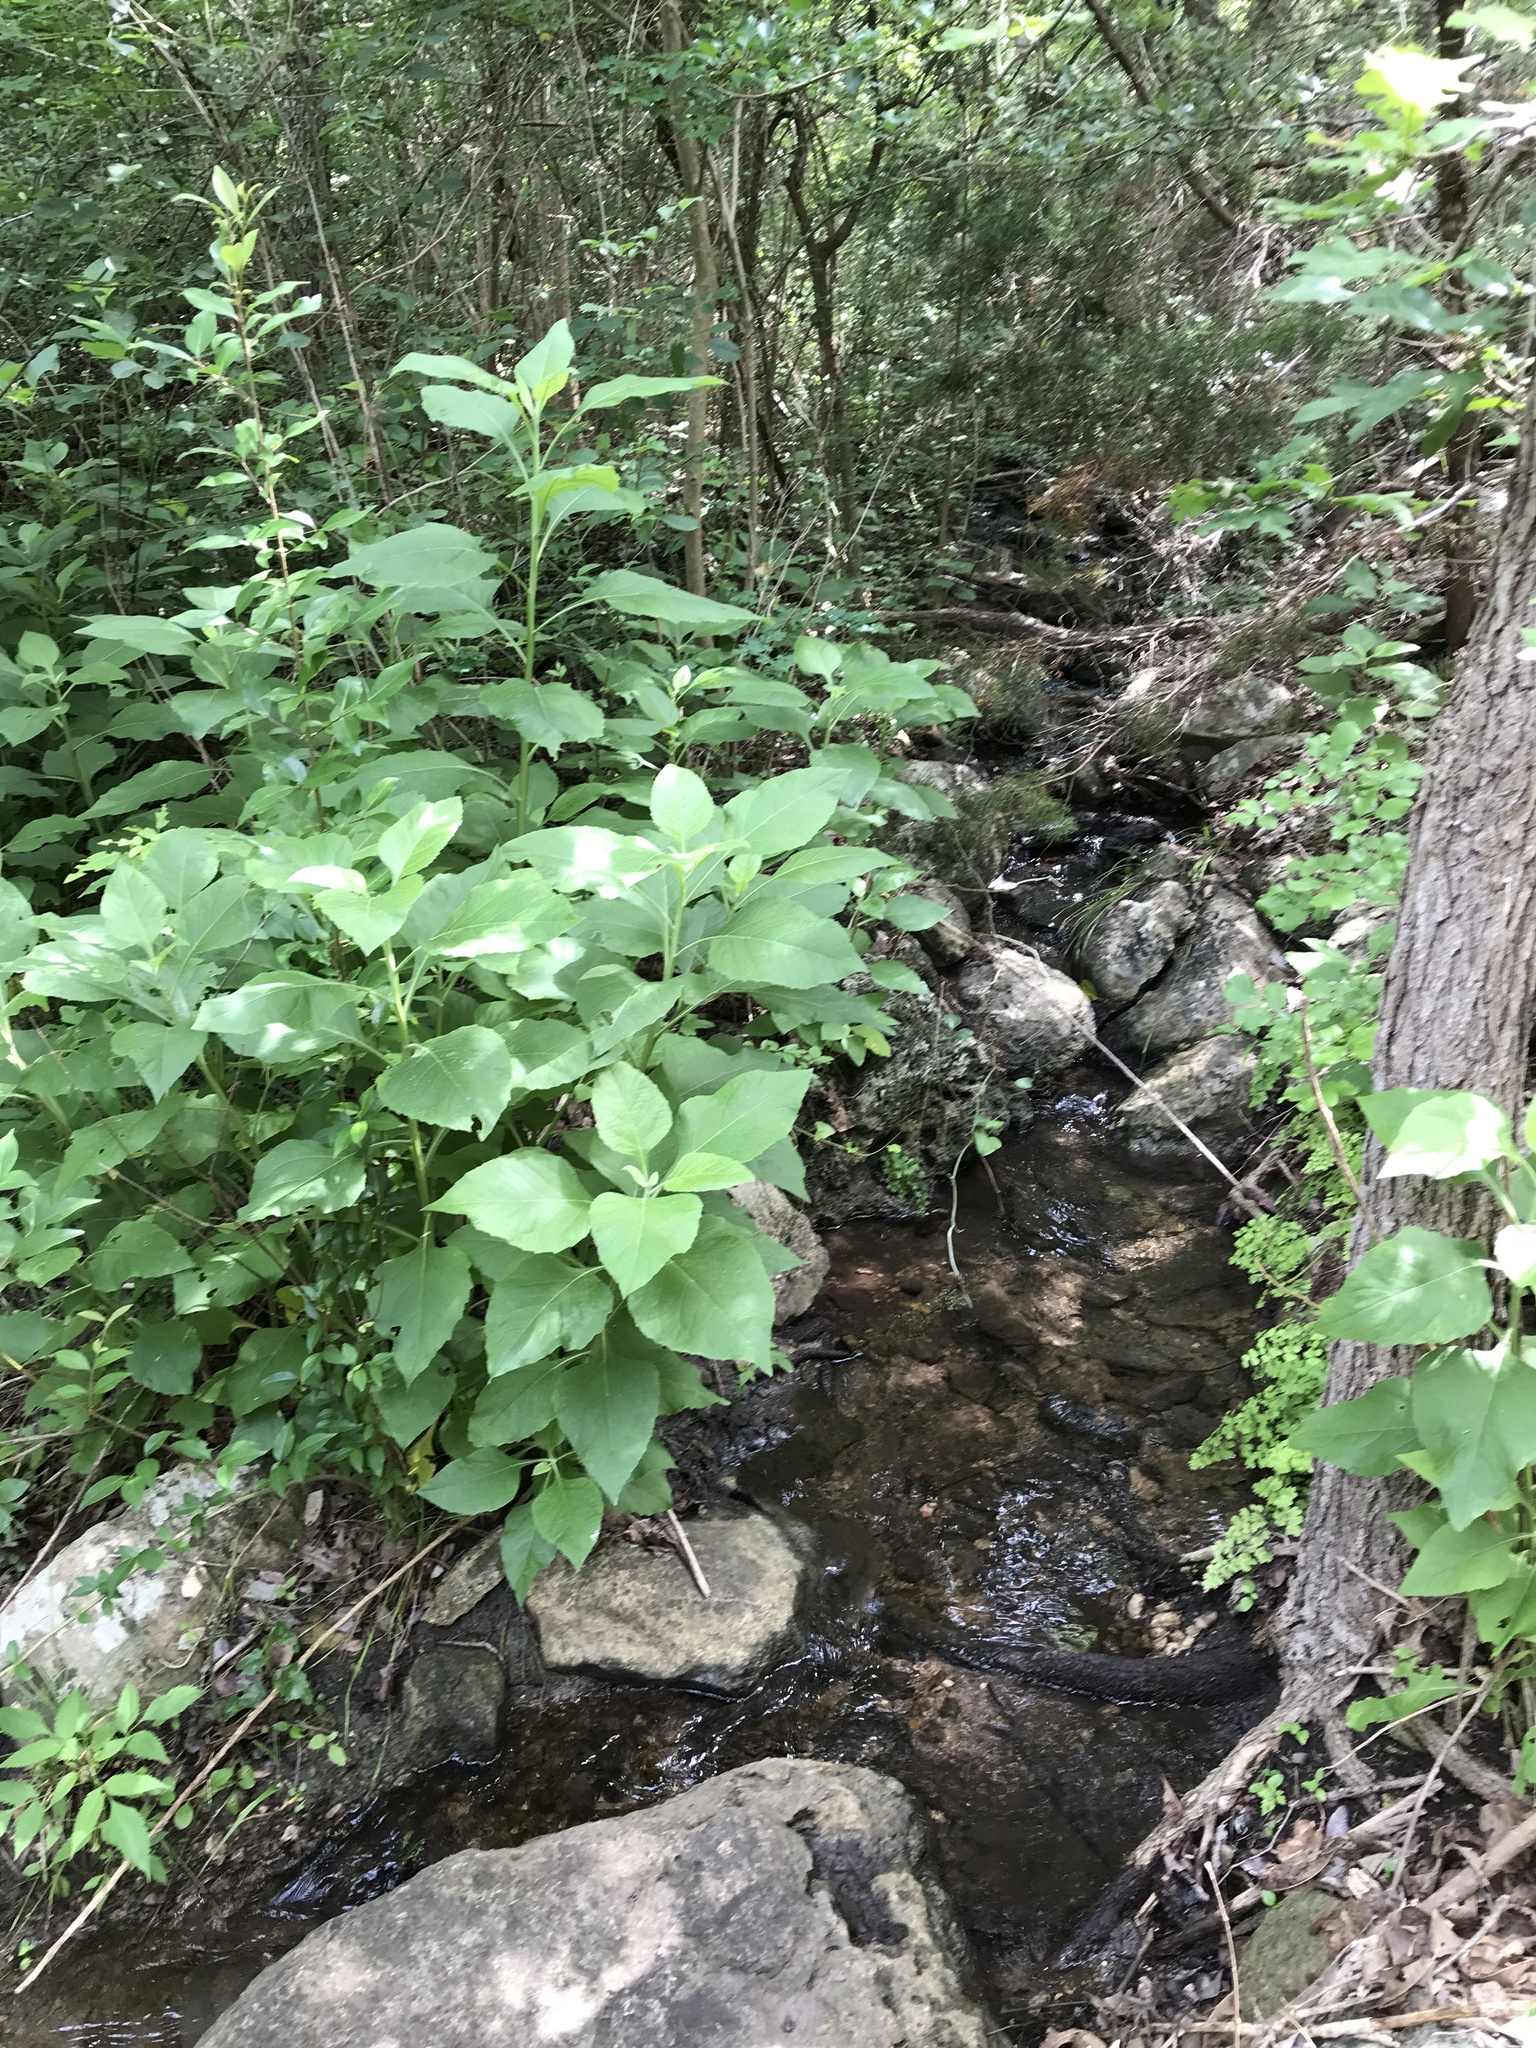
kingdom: Plantae
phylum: Tracheophyta
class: Magnoliopsida
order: Asterales
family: Asteraceae
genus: Verbesina
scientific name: Verbesina virginica
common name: Frostweed
